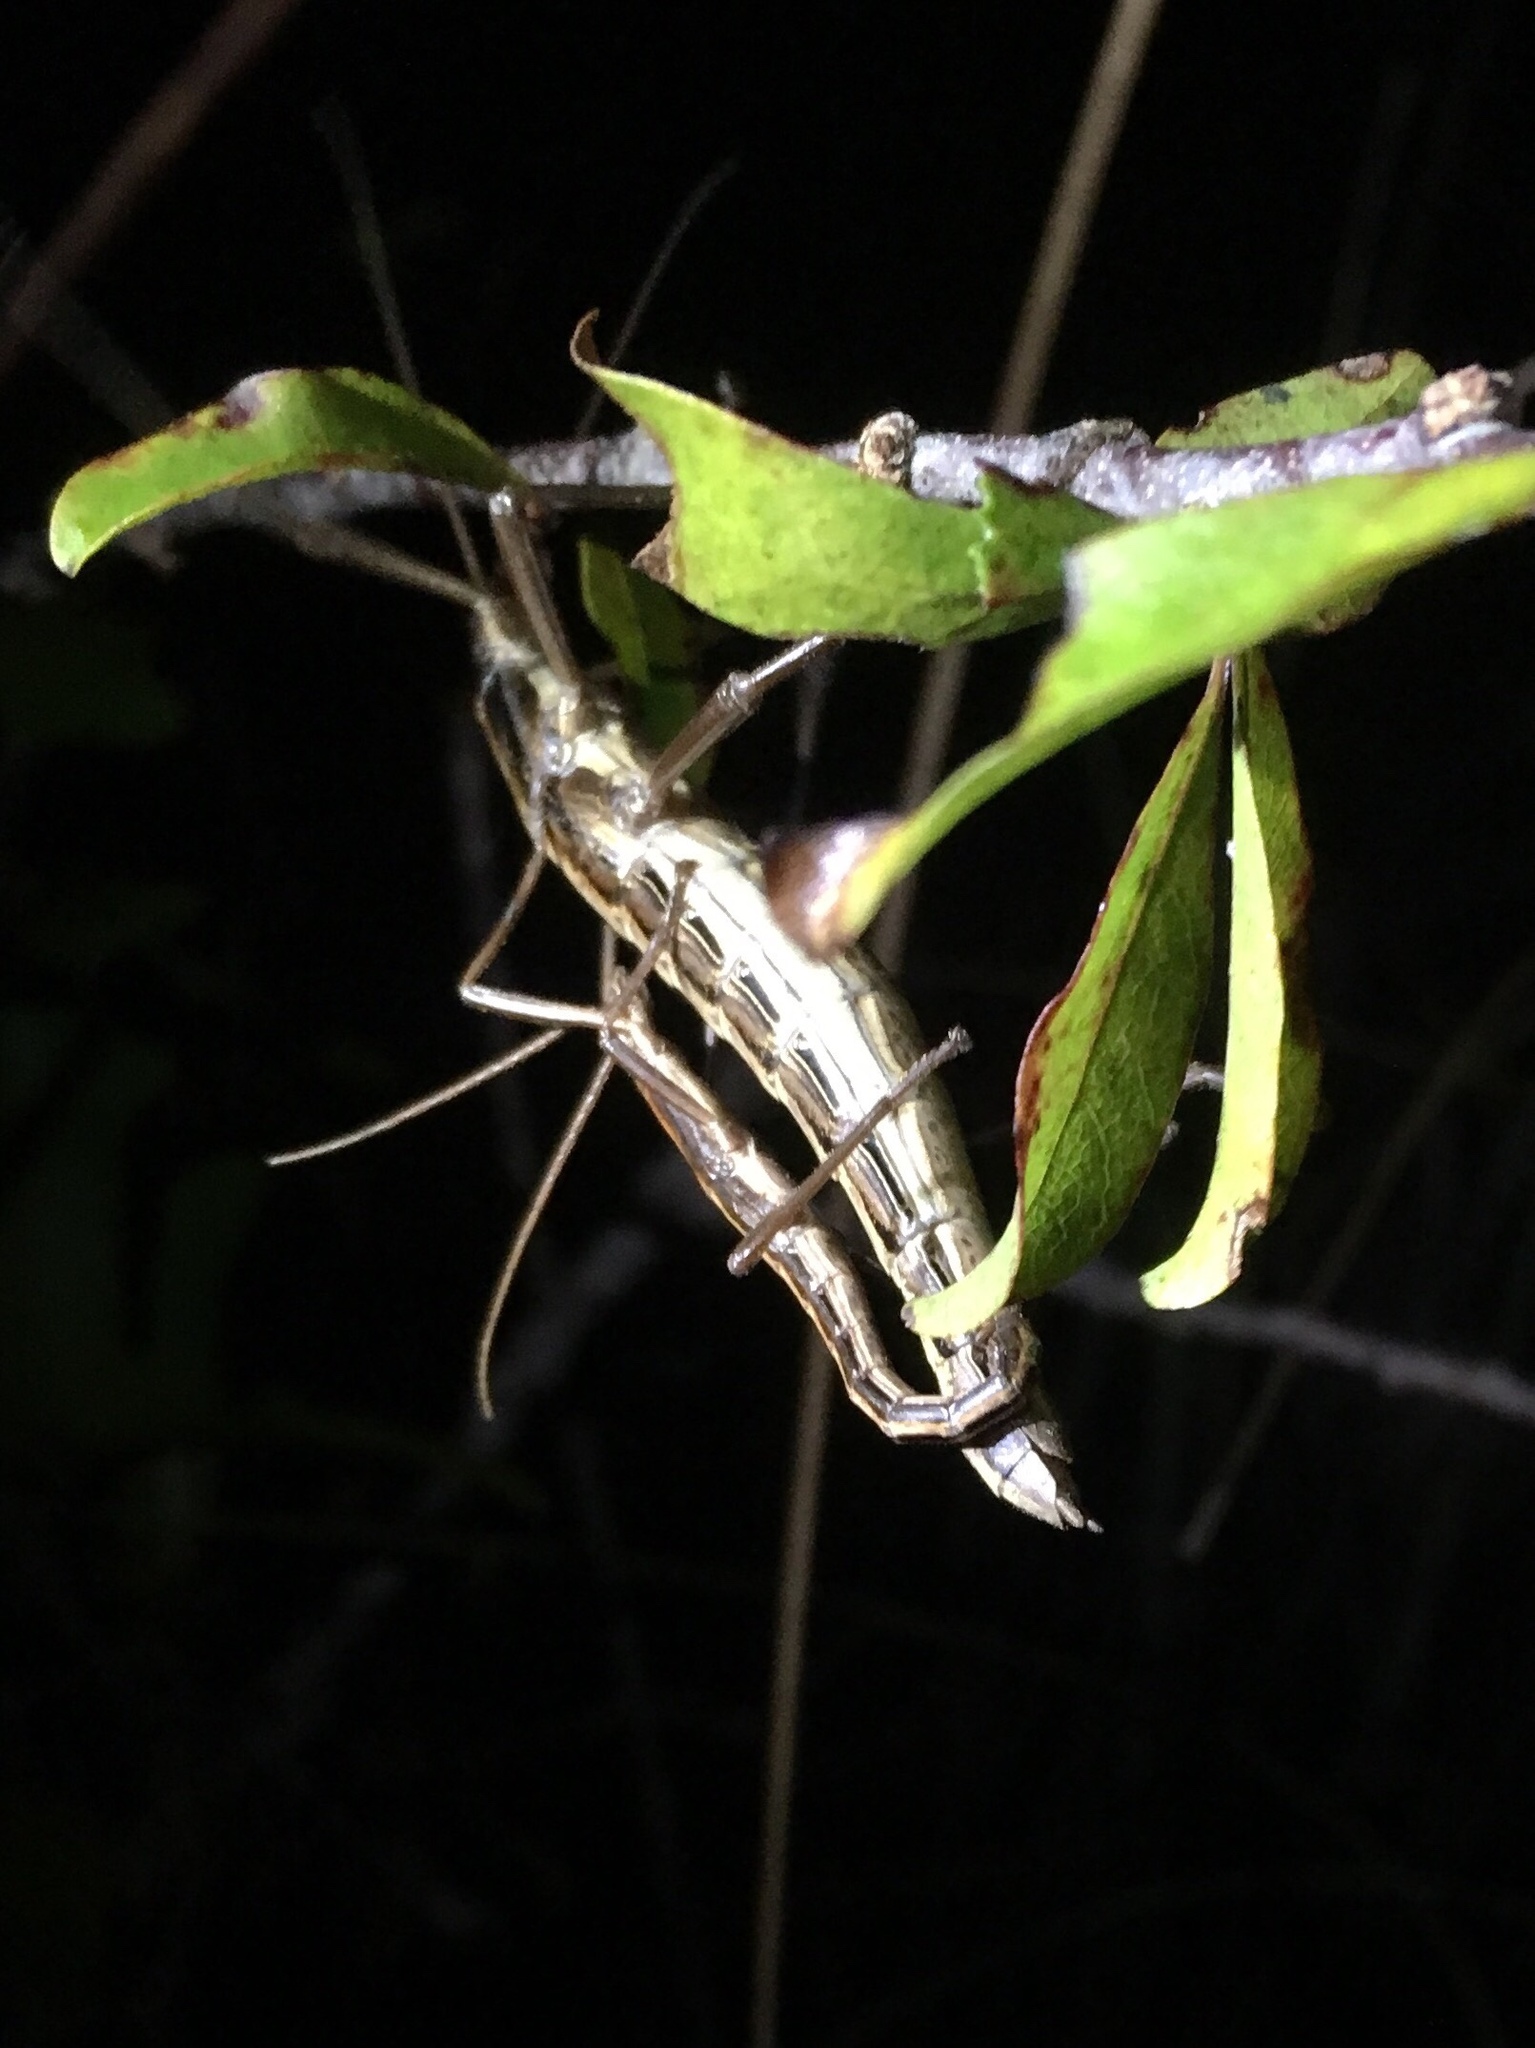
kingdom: Animalia
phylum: Arthropoda
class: Insecta
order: Phasmida
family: Pseudophasmatidae
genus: Anisomorpha
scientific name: Anisomorpha buprestoides
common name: Florida stick insect
